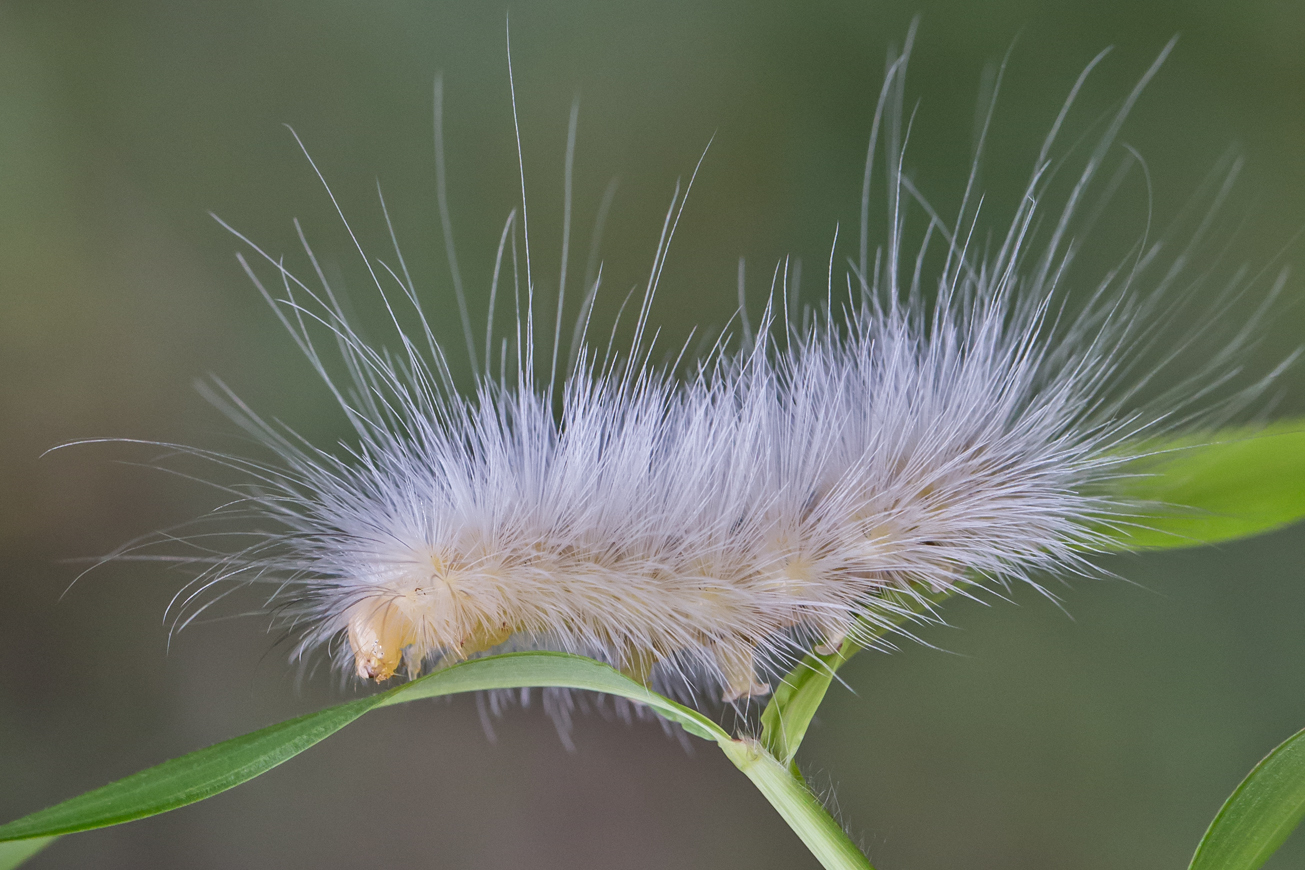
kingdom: Animalia
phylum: Arthropoda
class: Insecta
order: Lepidoptera
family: Erebidae
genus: Cycnia
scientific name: Cycnia tenera
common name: Delicate cycnia moth
